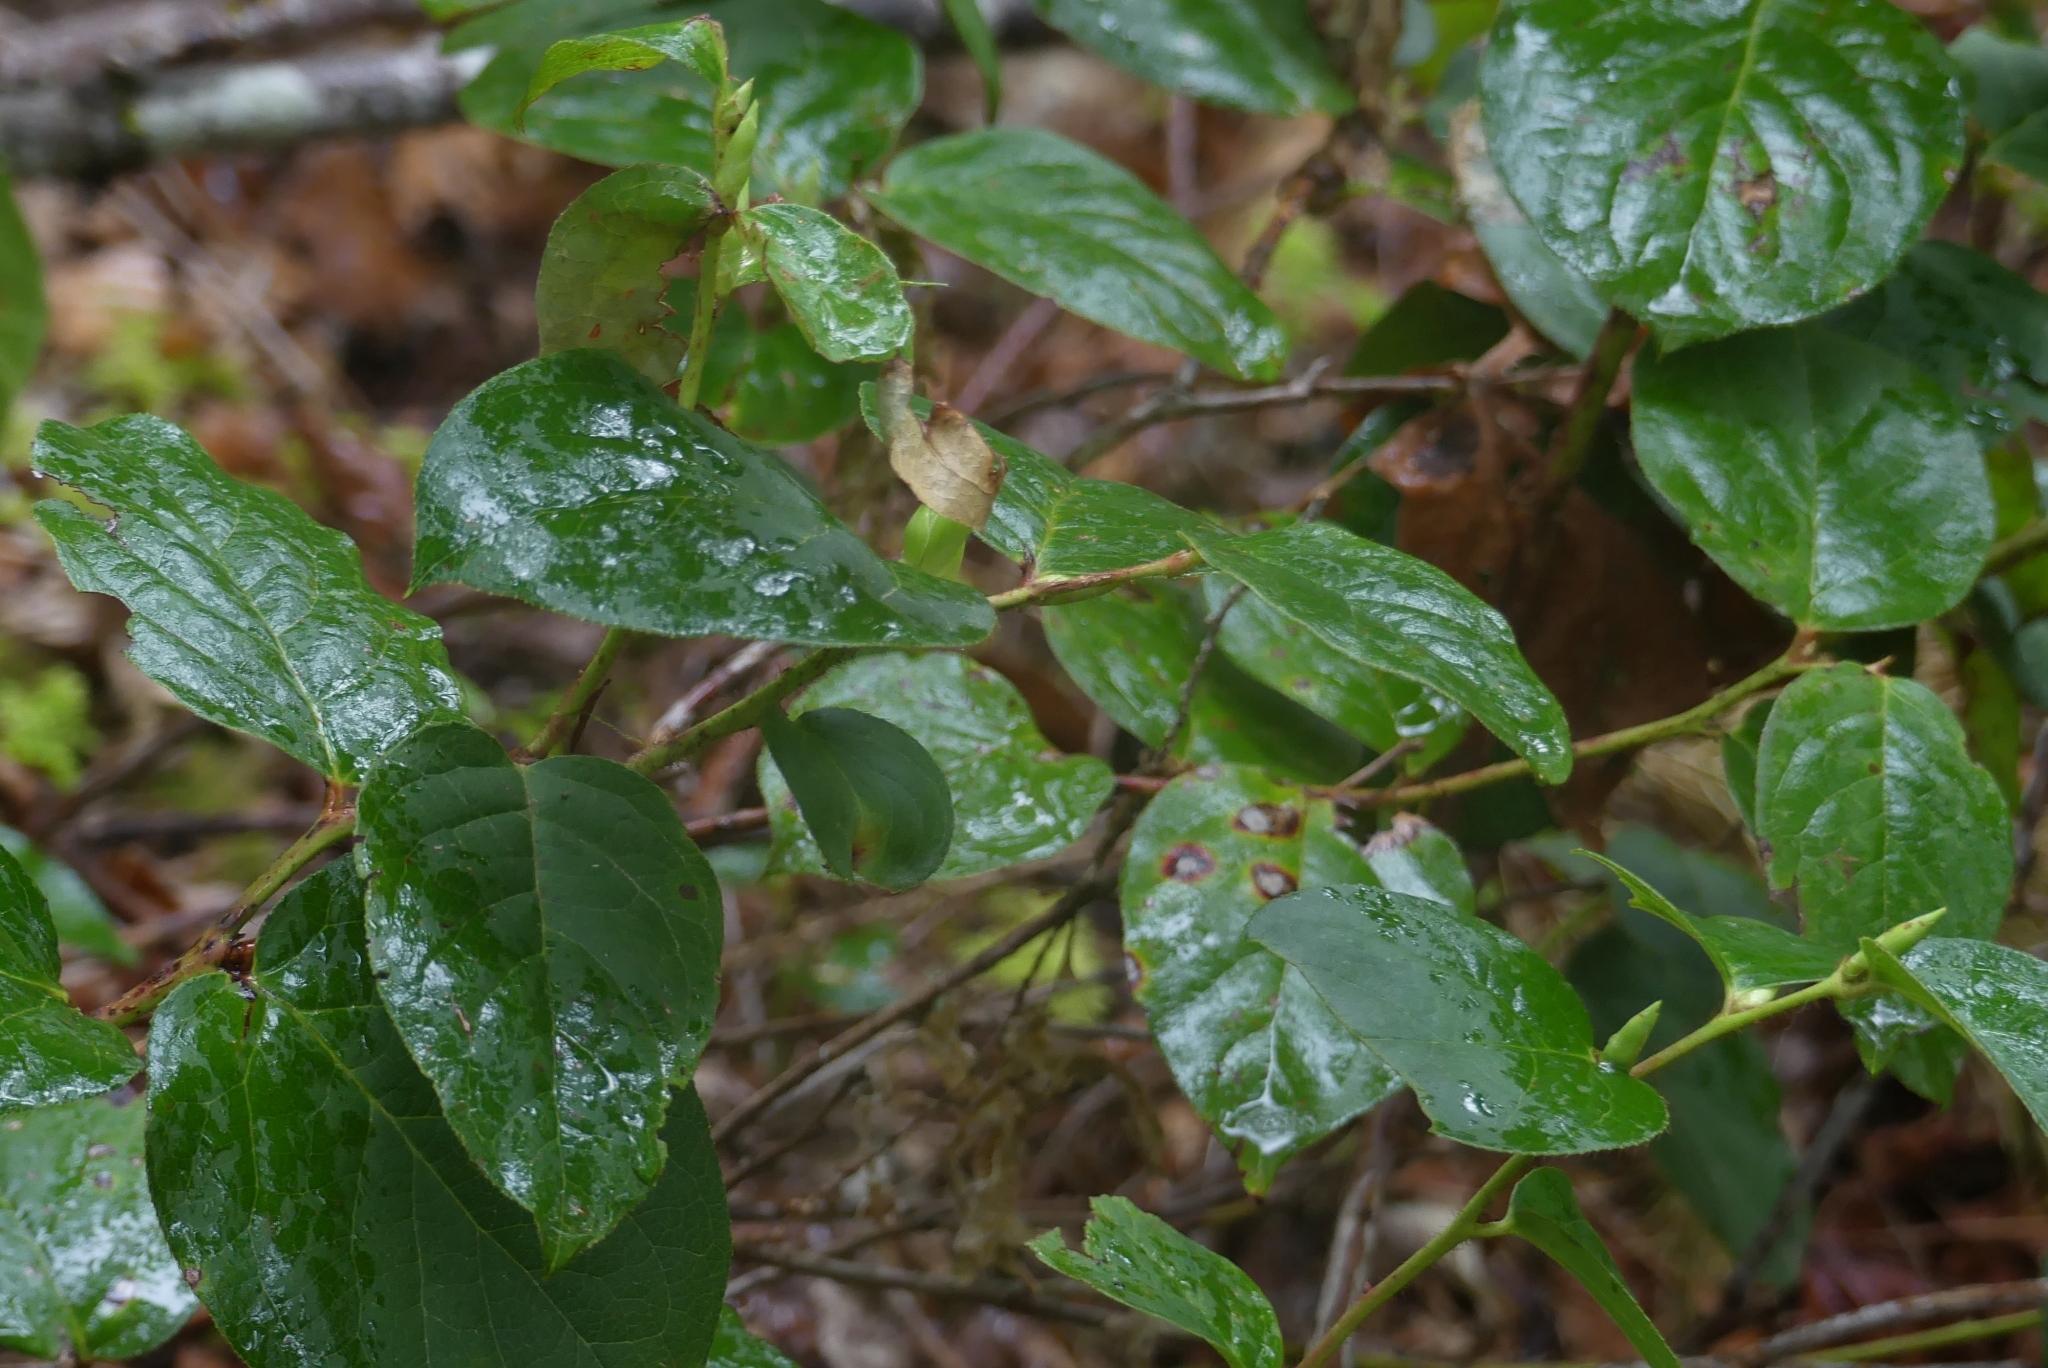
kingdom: Plantae
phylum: Tracheophyta
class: Magnoliopsida
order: Ericales
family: Ericaceae
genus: Gaultheria
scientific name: Gaultheria shallon
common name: Shallon
